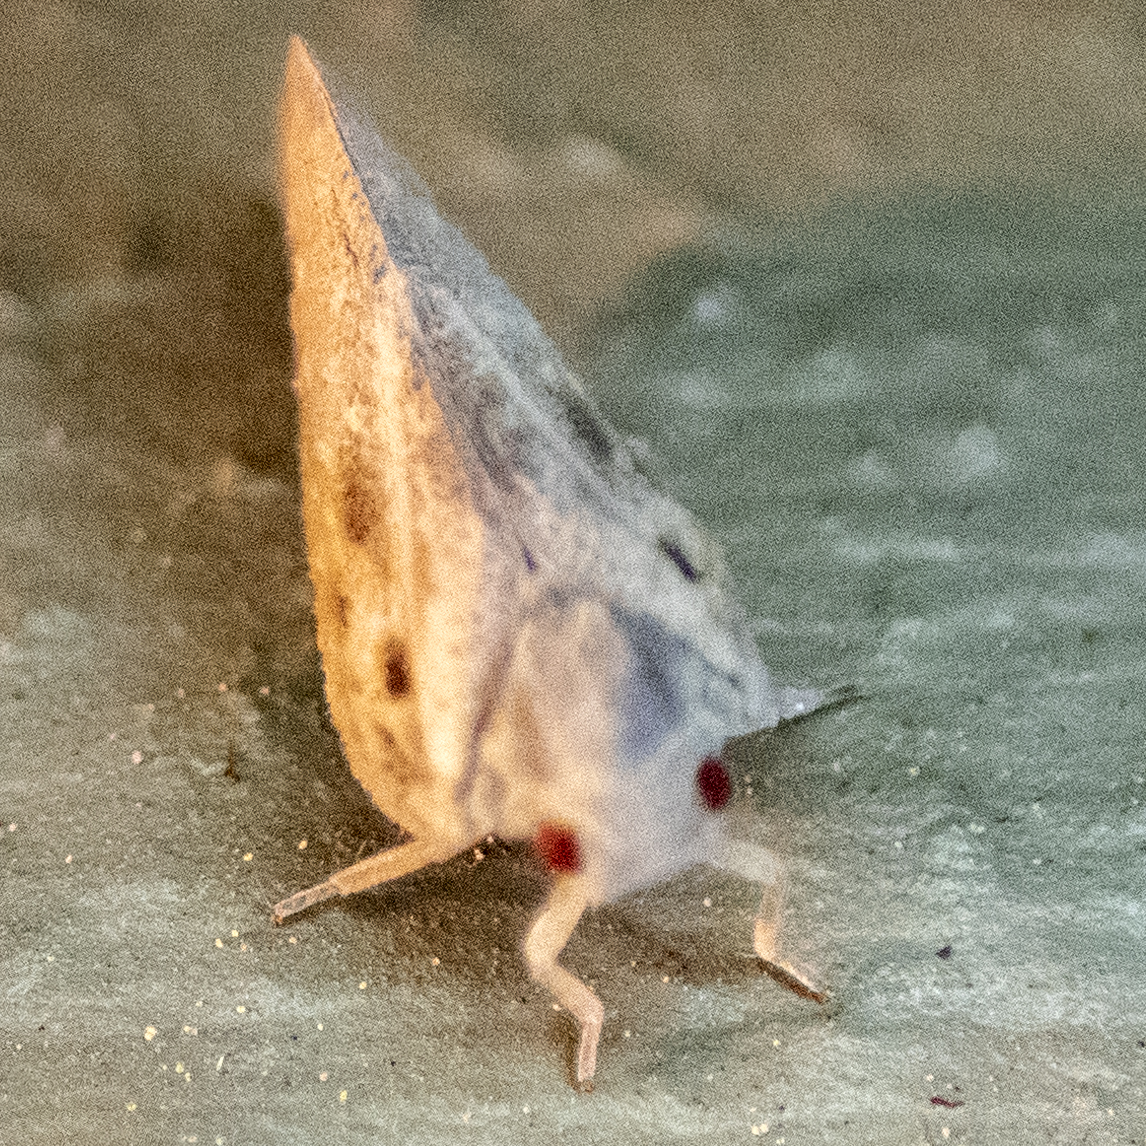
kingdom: Animalia
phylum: Arthropoda
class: Insecta
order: Hemiptera
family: Flatidae
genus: Metcalfa
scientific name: Metcalfa pruinosa
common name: Citrus flatid planthopper
